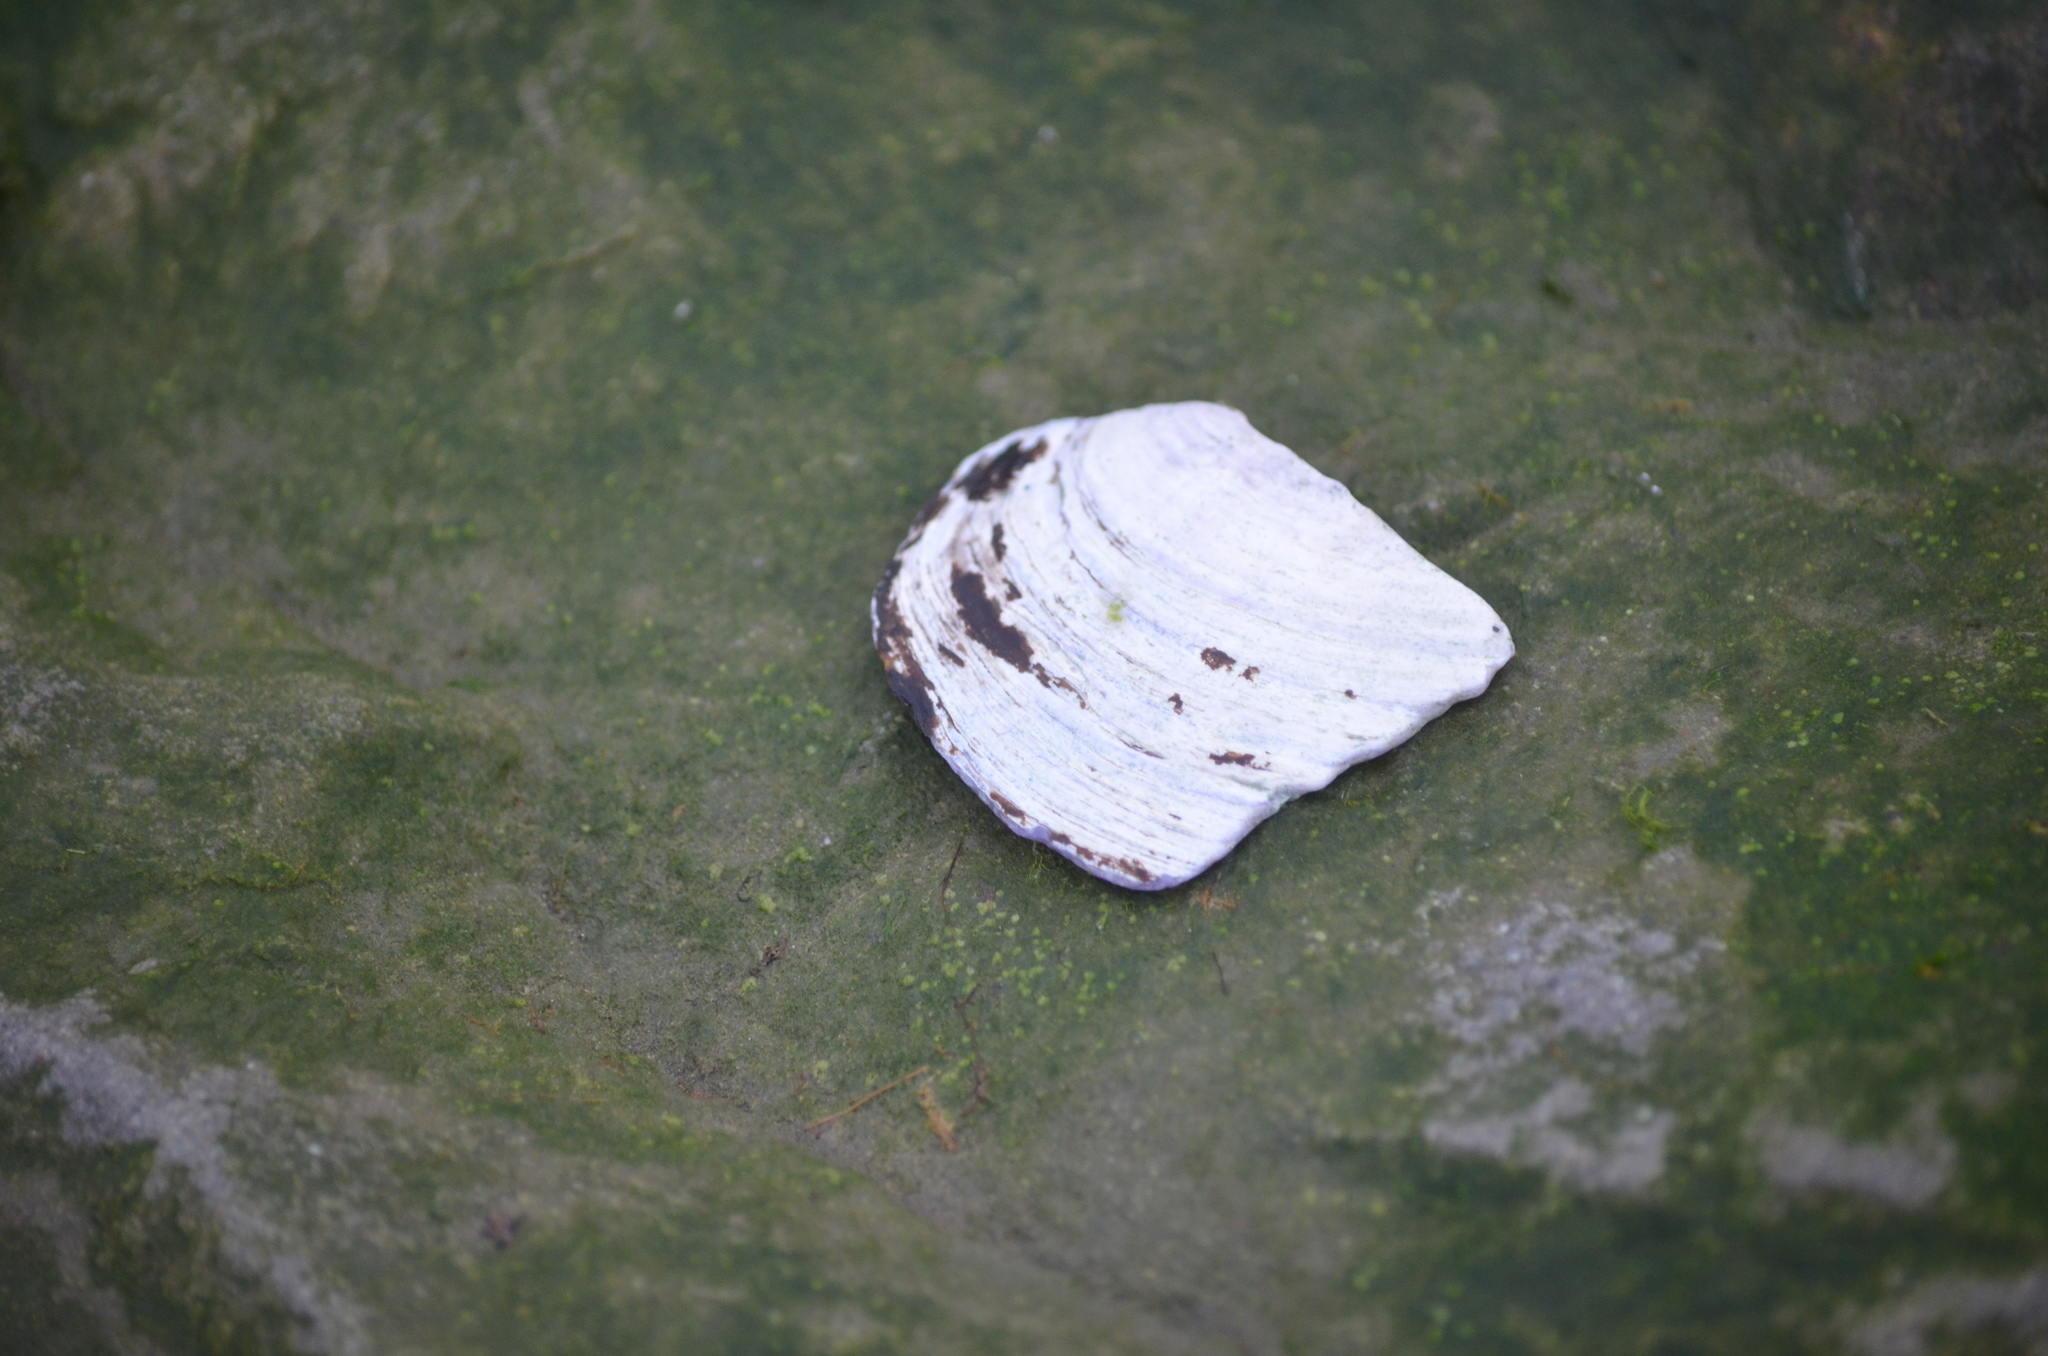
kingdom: Animalia
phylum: Mollusca
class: Bivalvia
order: Cardiida
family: Psammobiidae
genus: Nuttallia
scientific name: Nuttallia obscurata
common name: Purple mahogany-clam
